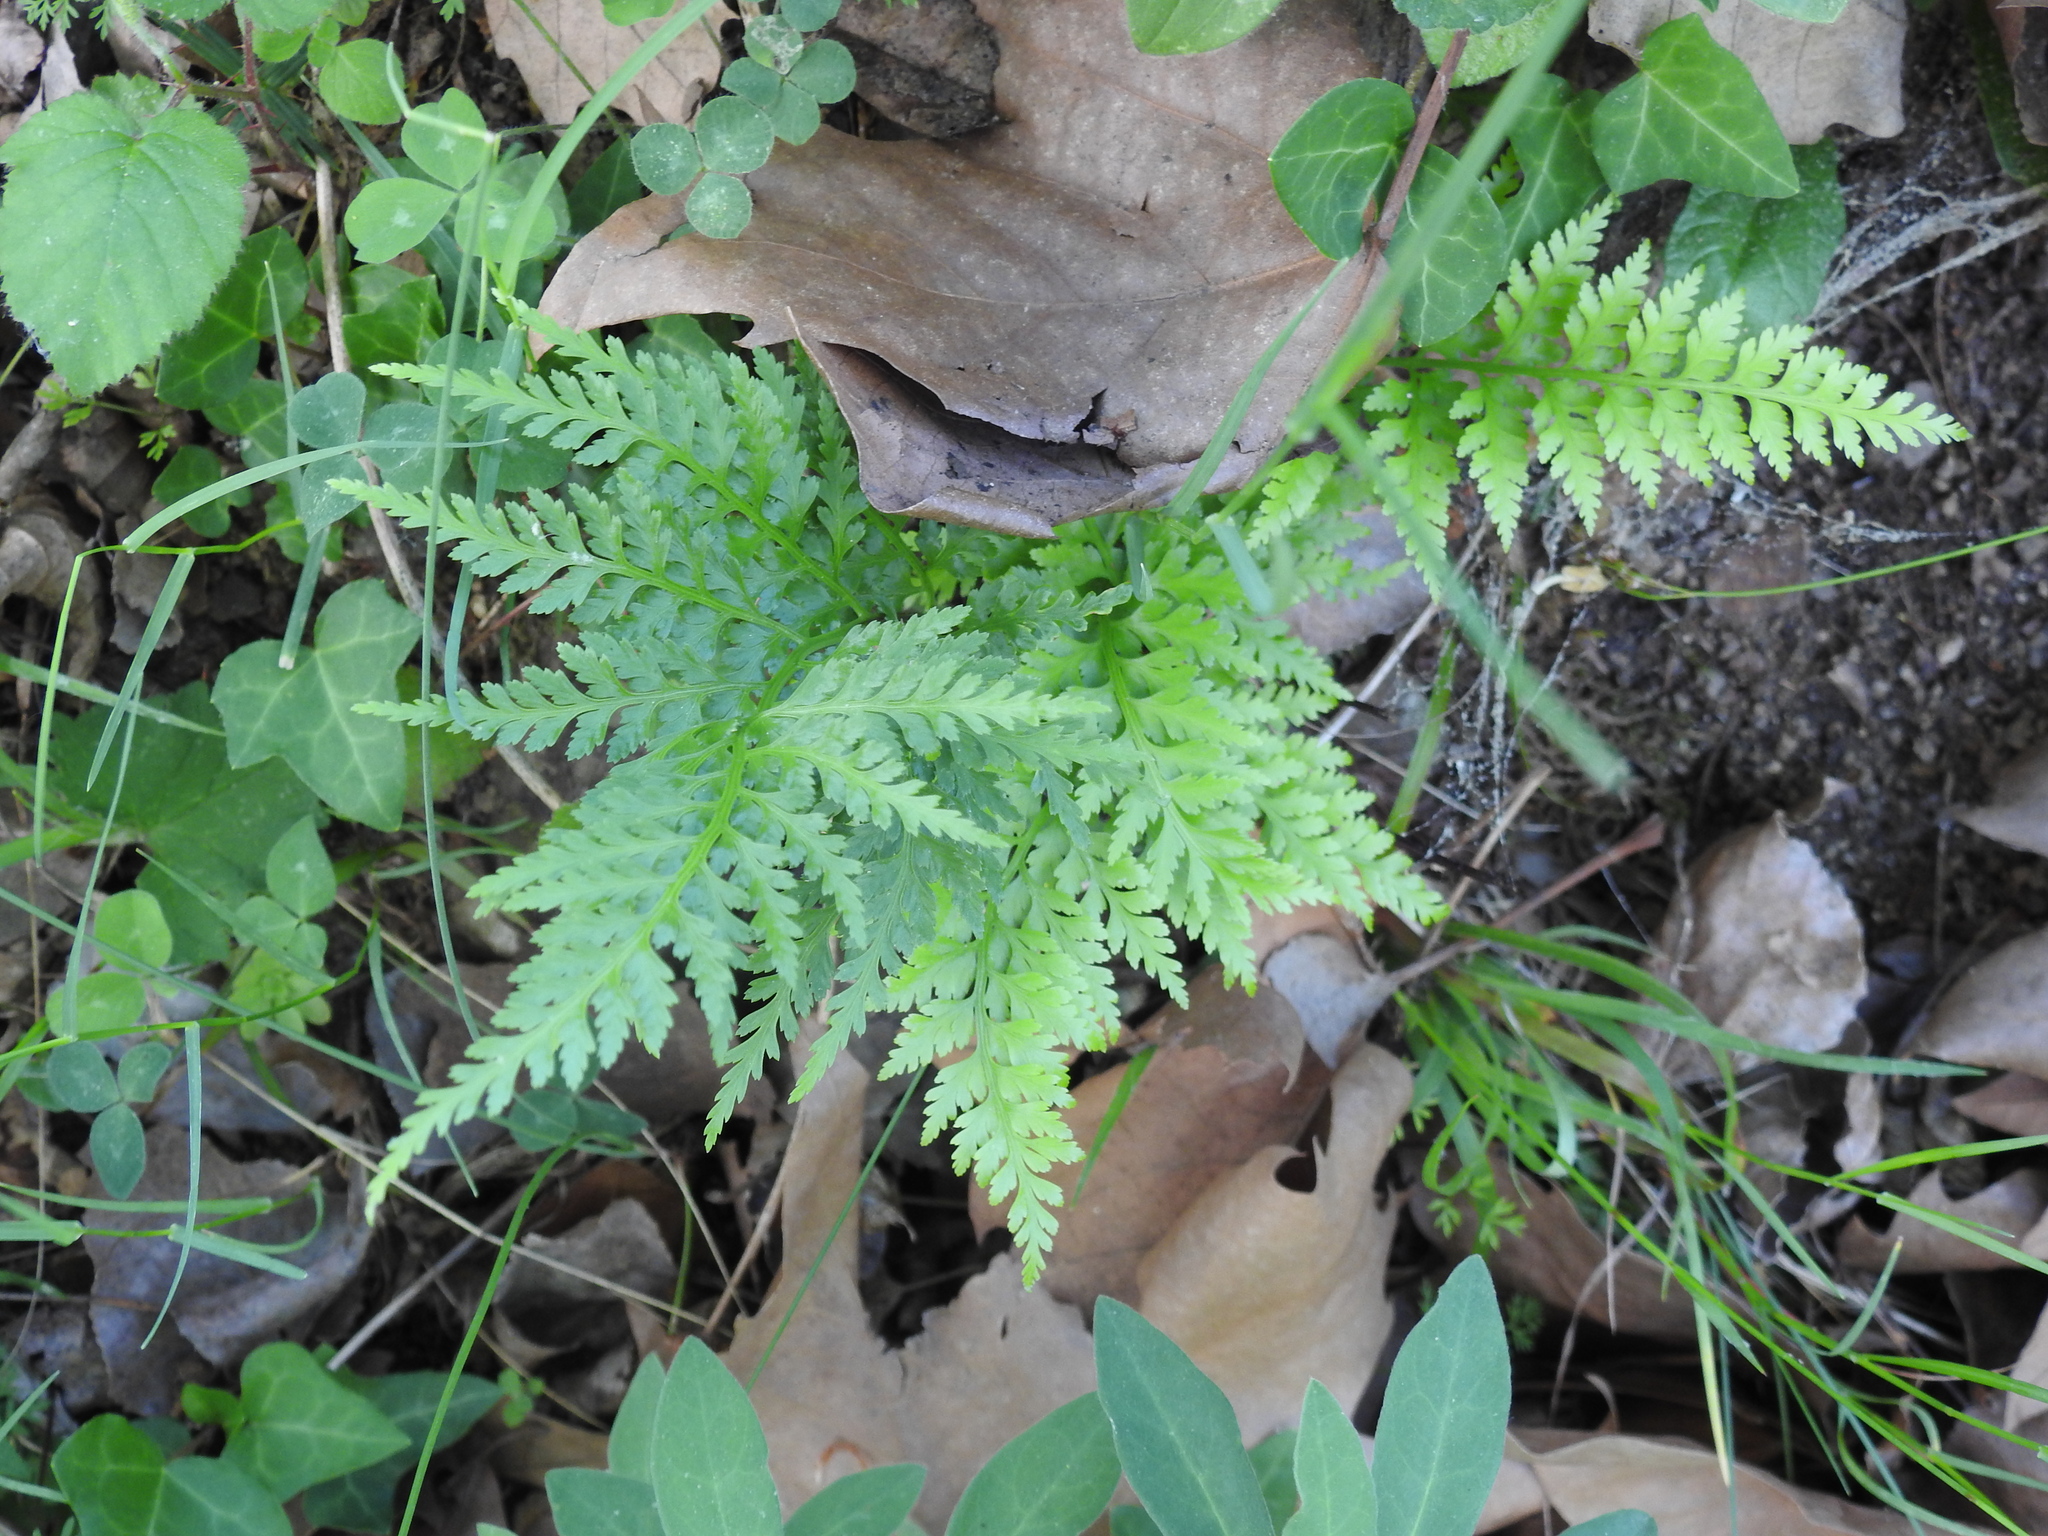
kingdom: Plantae
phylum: Tracheophyta
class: Polypodiopsida
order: Polypodiales
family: Aspleniaceae
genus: Asplenium
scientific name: Asplenium onopteris
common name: Irish spleenwort
